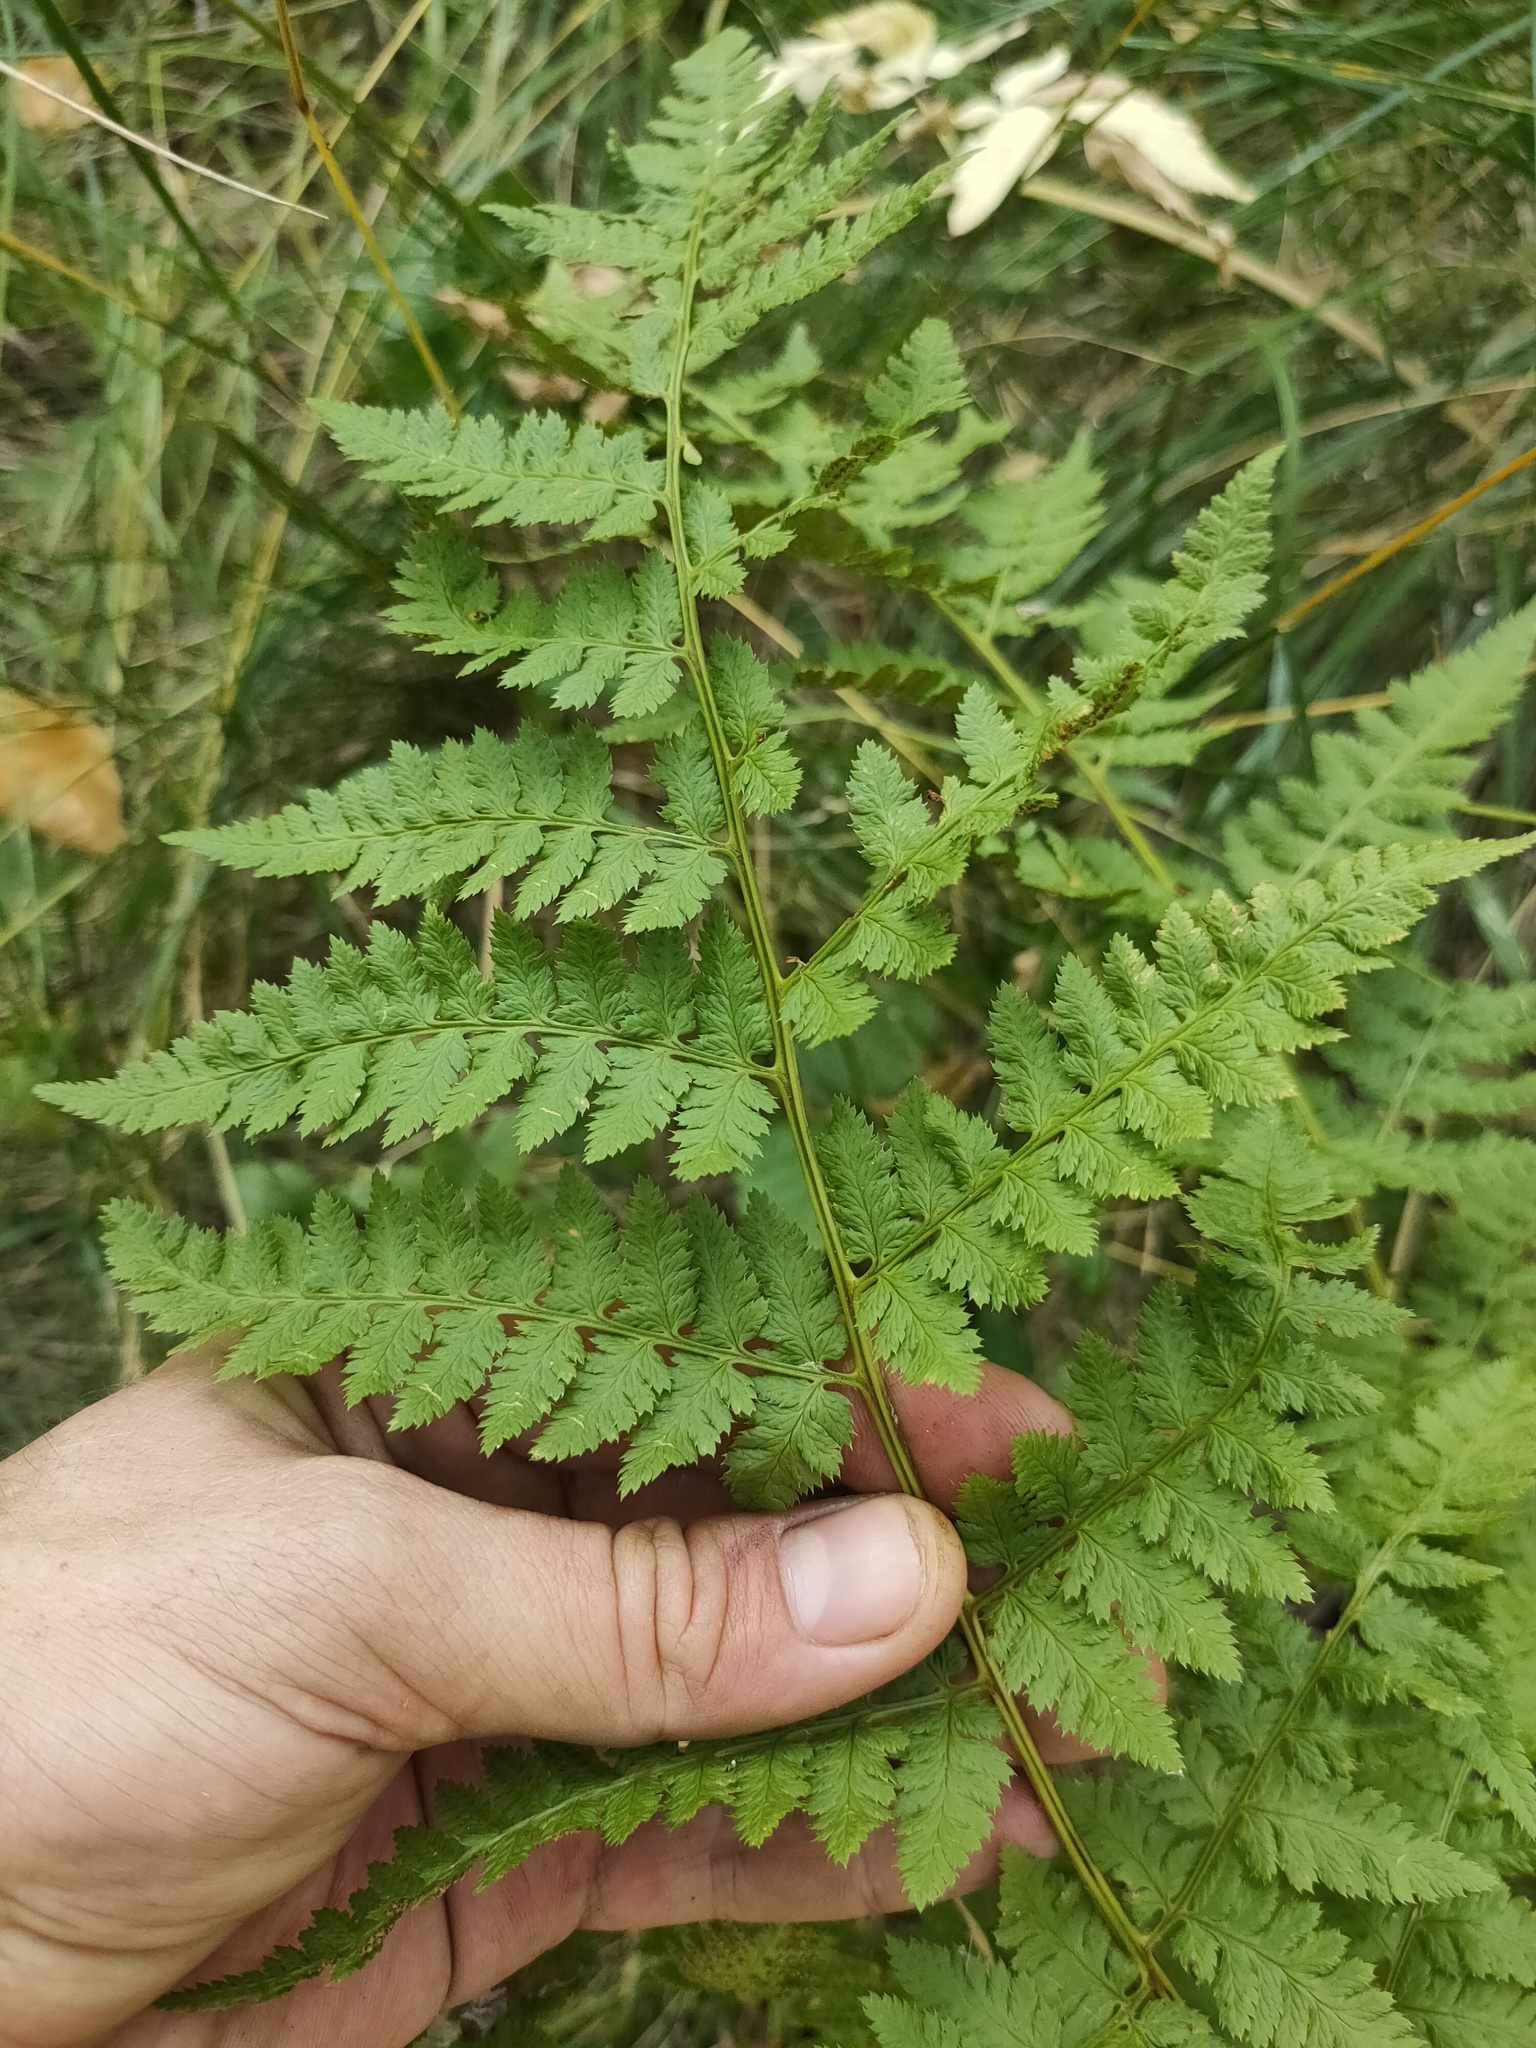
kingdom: Plantae
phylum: Tracheophyta
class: Polypodiopsida
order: Polypodiales
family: Dryopteridaceae
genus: Dryopteris
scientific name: Dryopteris carthusiana
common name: Narrow buckler-fern
